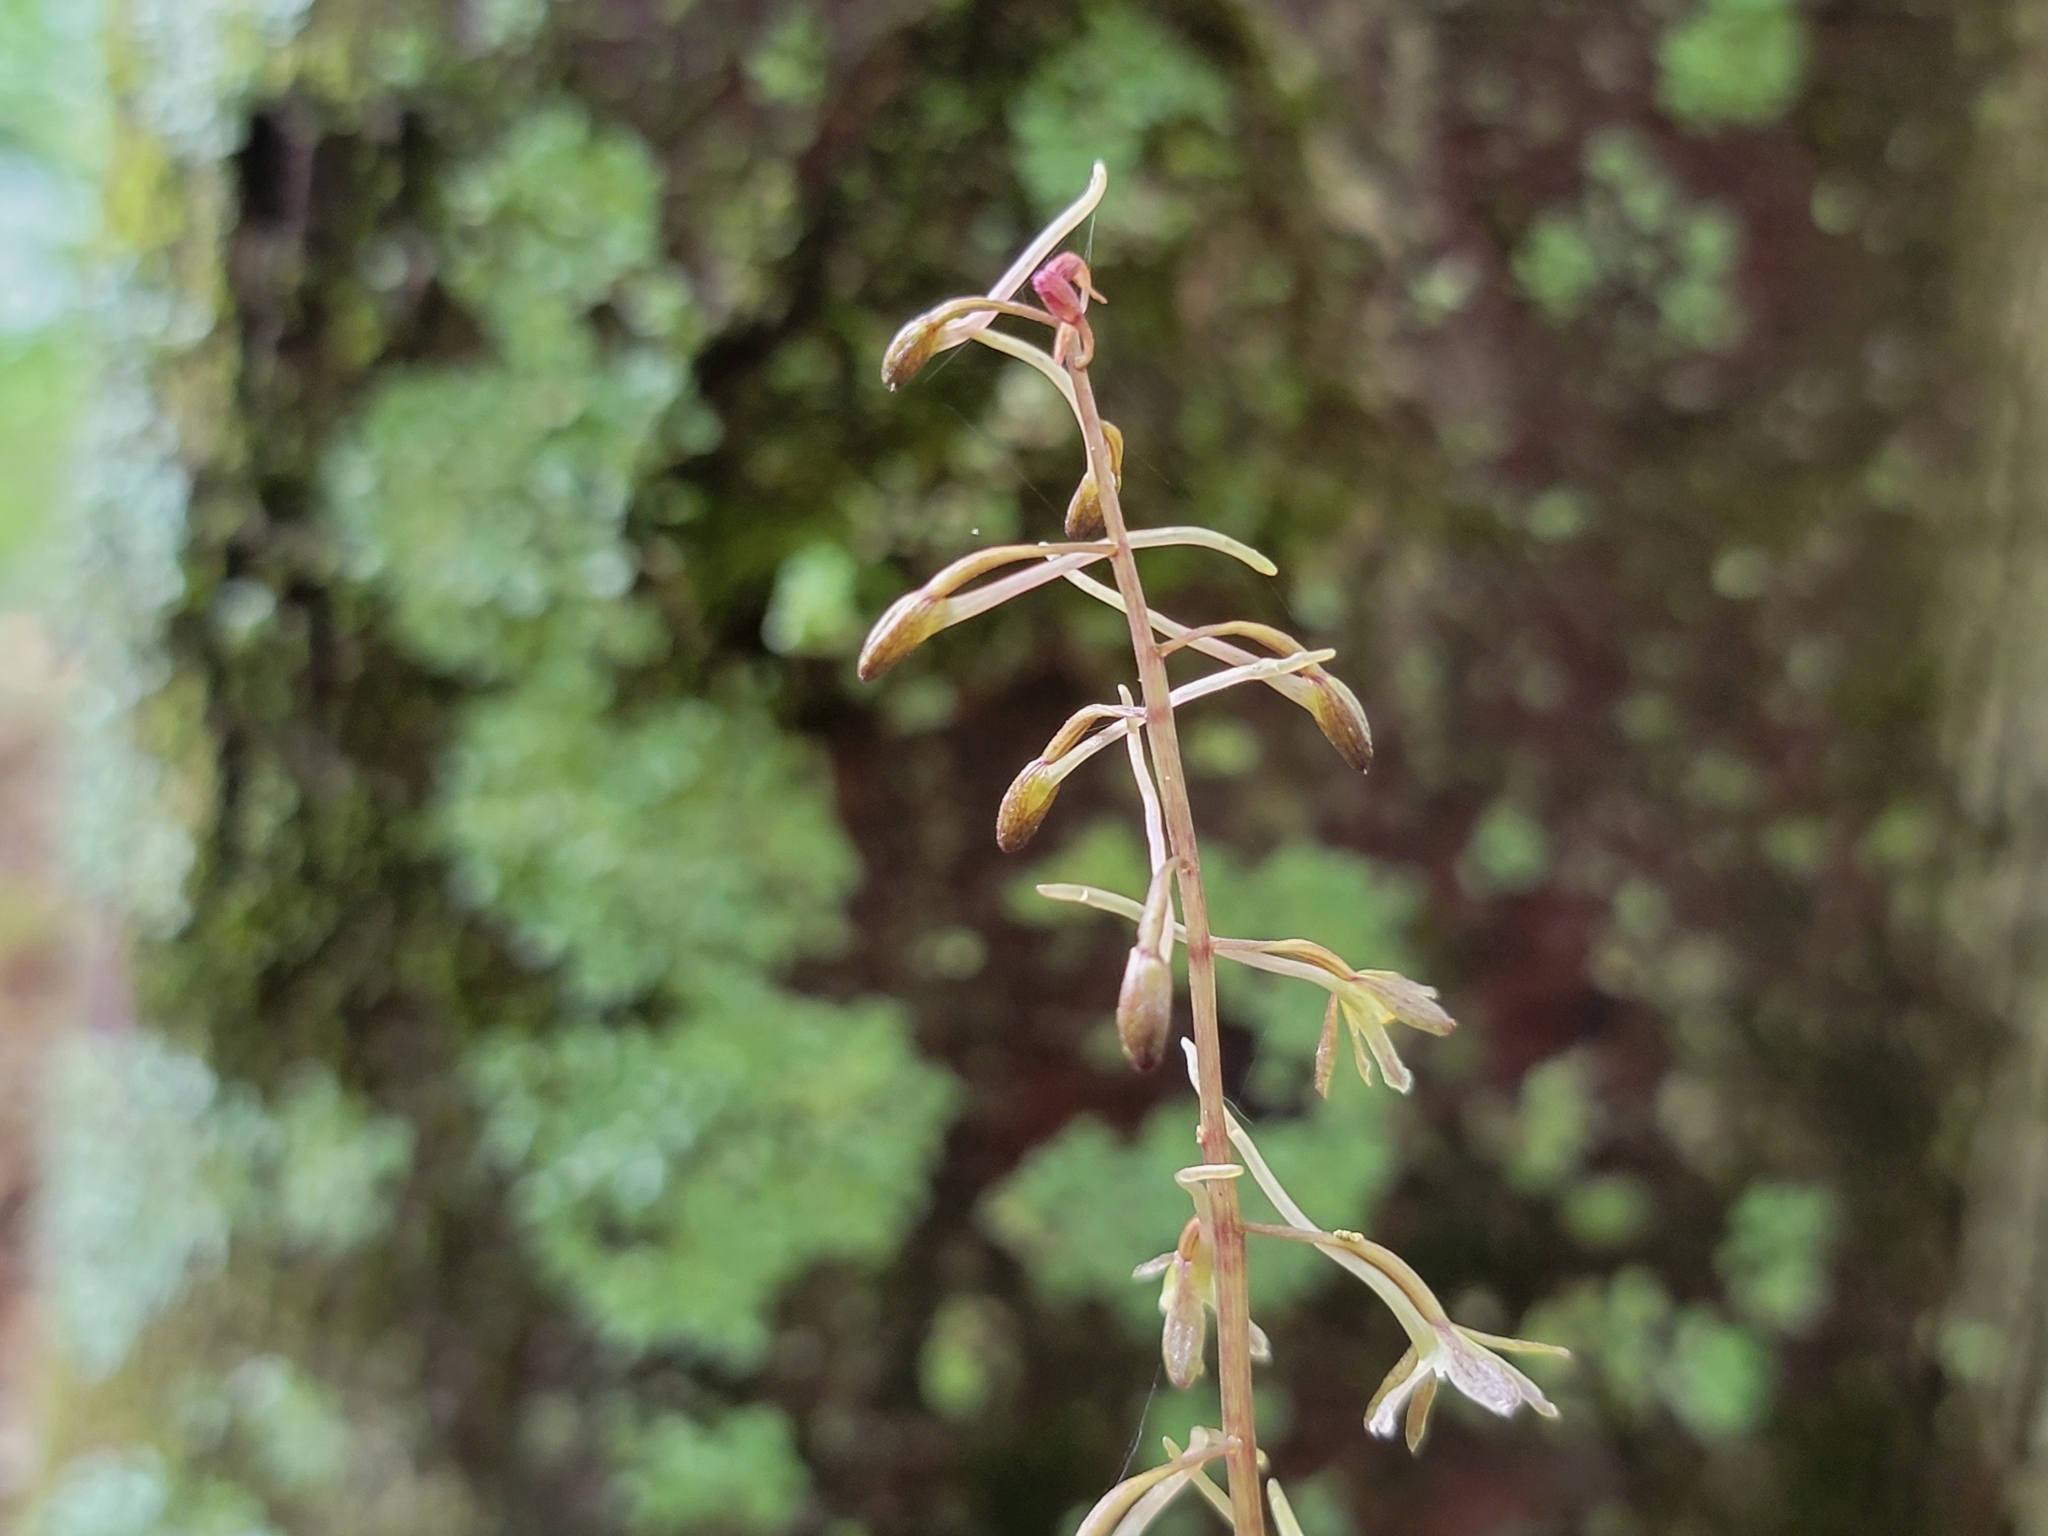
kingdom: Plantae
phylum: Tracheophyta
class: Liliopsida
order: Asparagales
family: Orchidaceae
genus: Tipularia
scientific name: Tipularia discolor
